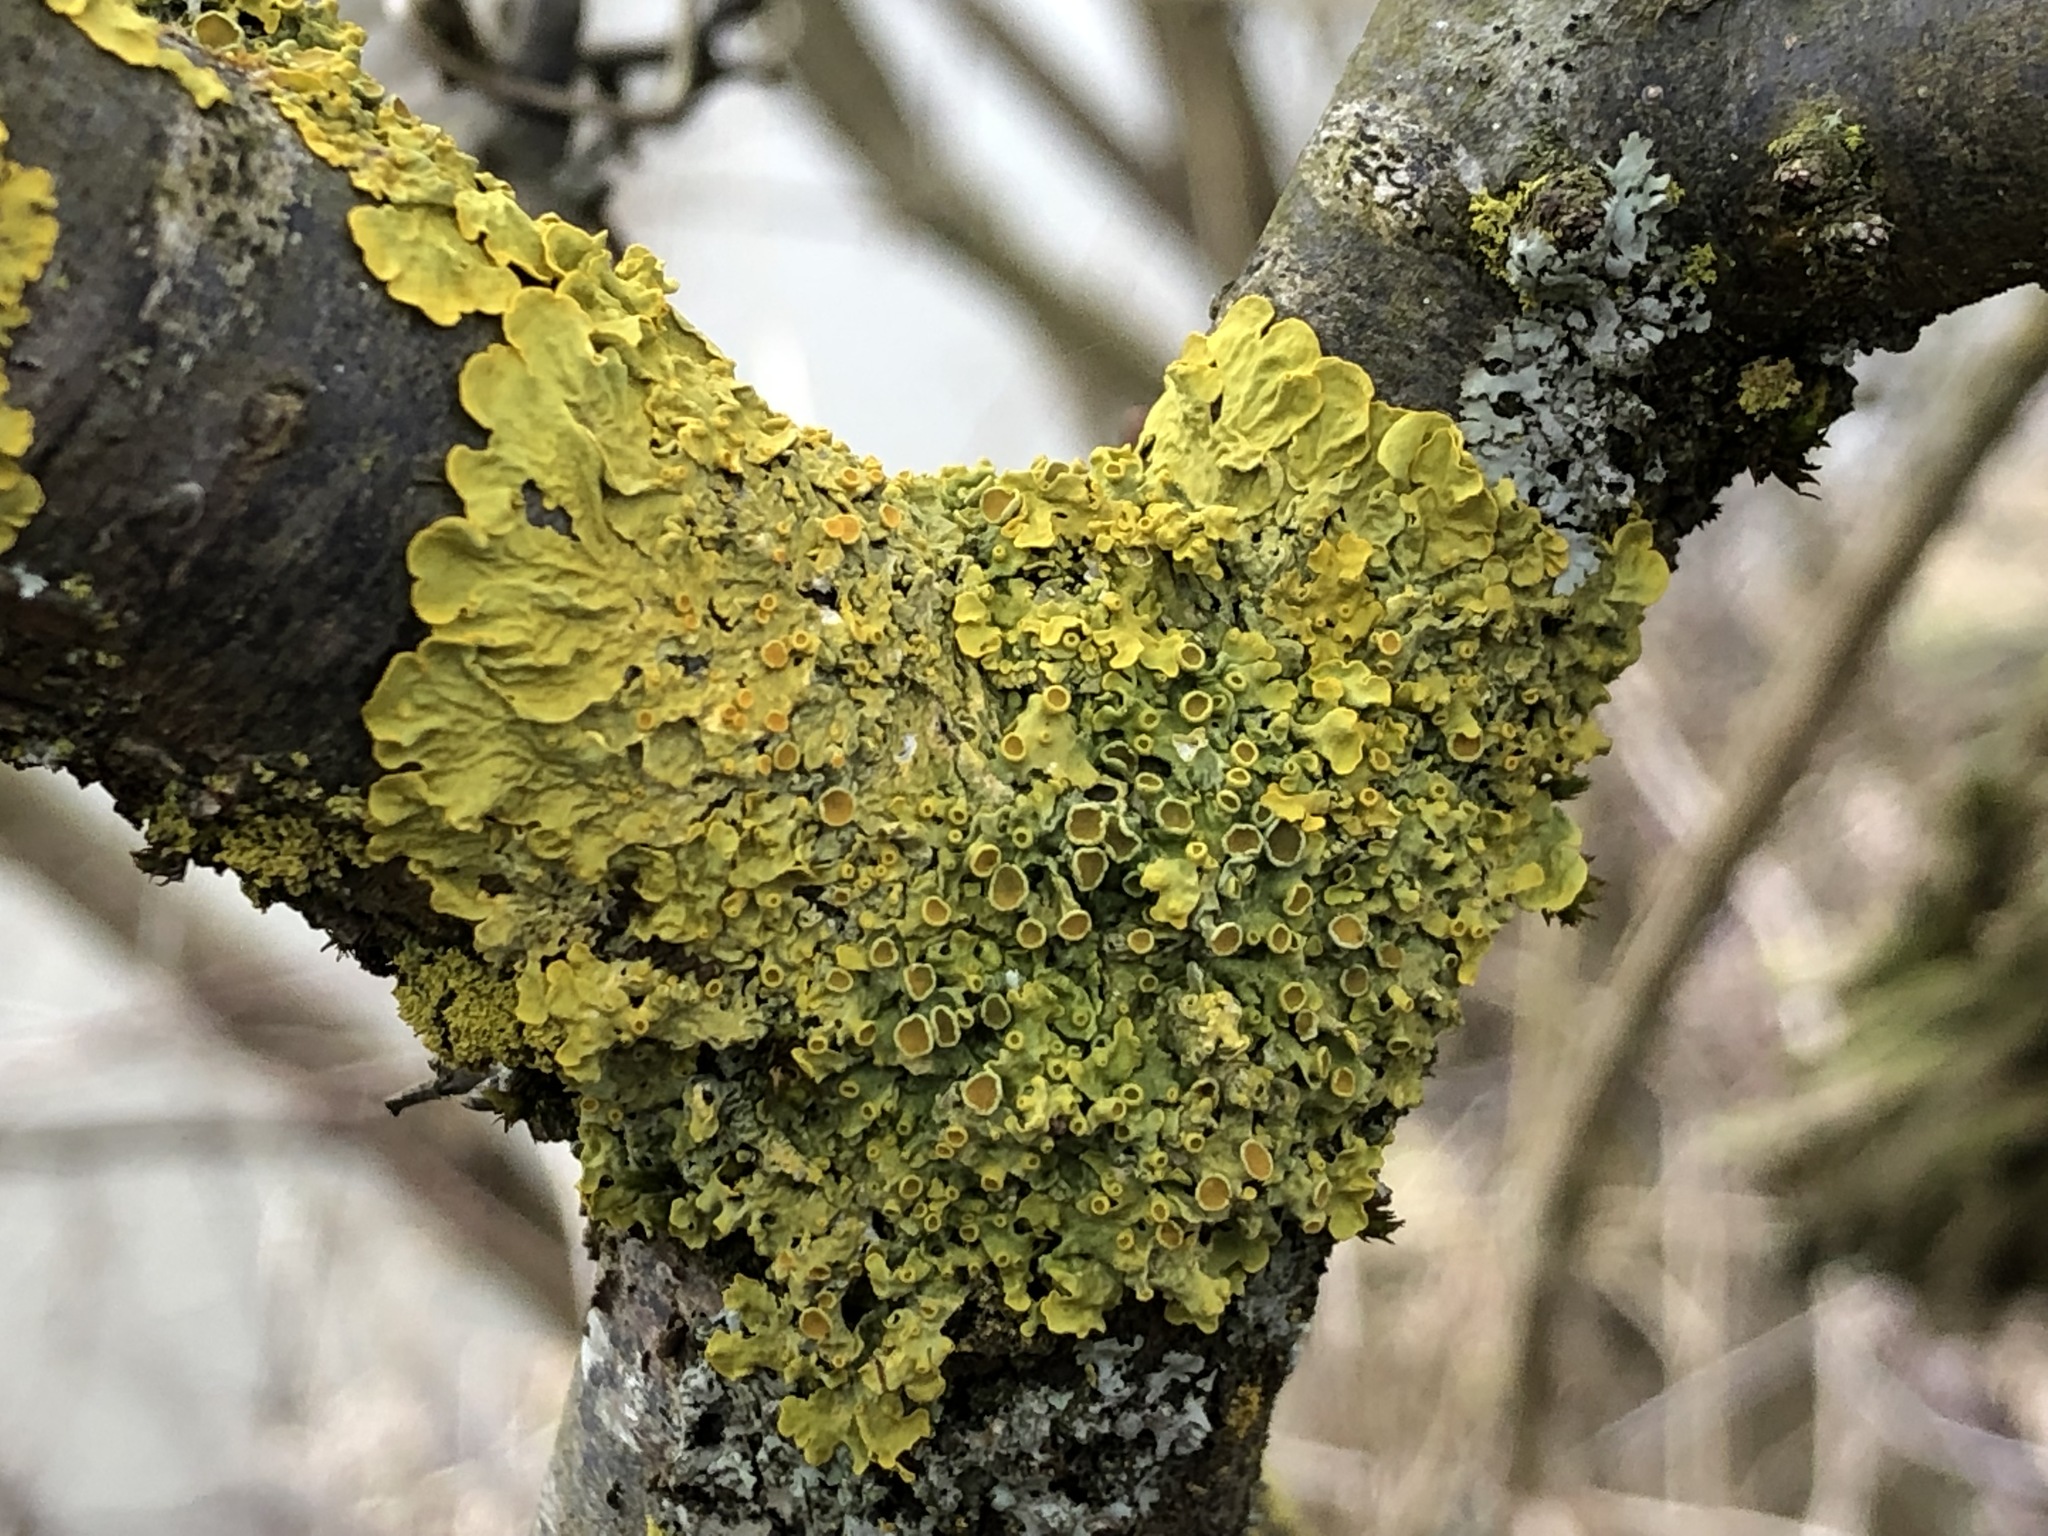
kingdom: Fungi
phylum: Ascomycota
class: Lecanoromycetes
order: Teloschistales
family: Teloschistaceae
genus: Xanthoria
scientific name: Xanthoria parietina
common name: Common orange lichen
